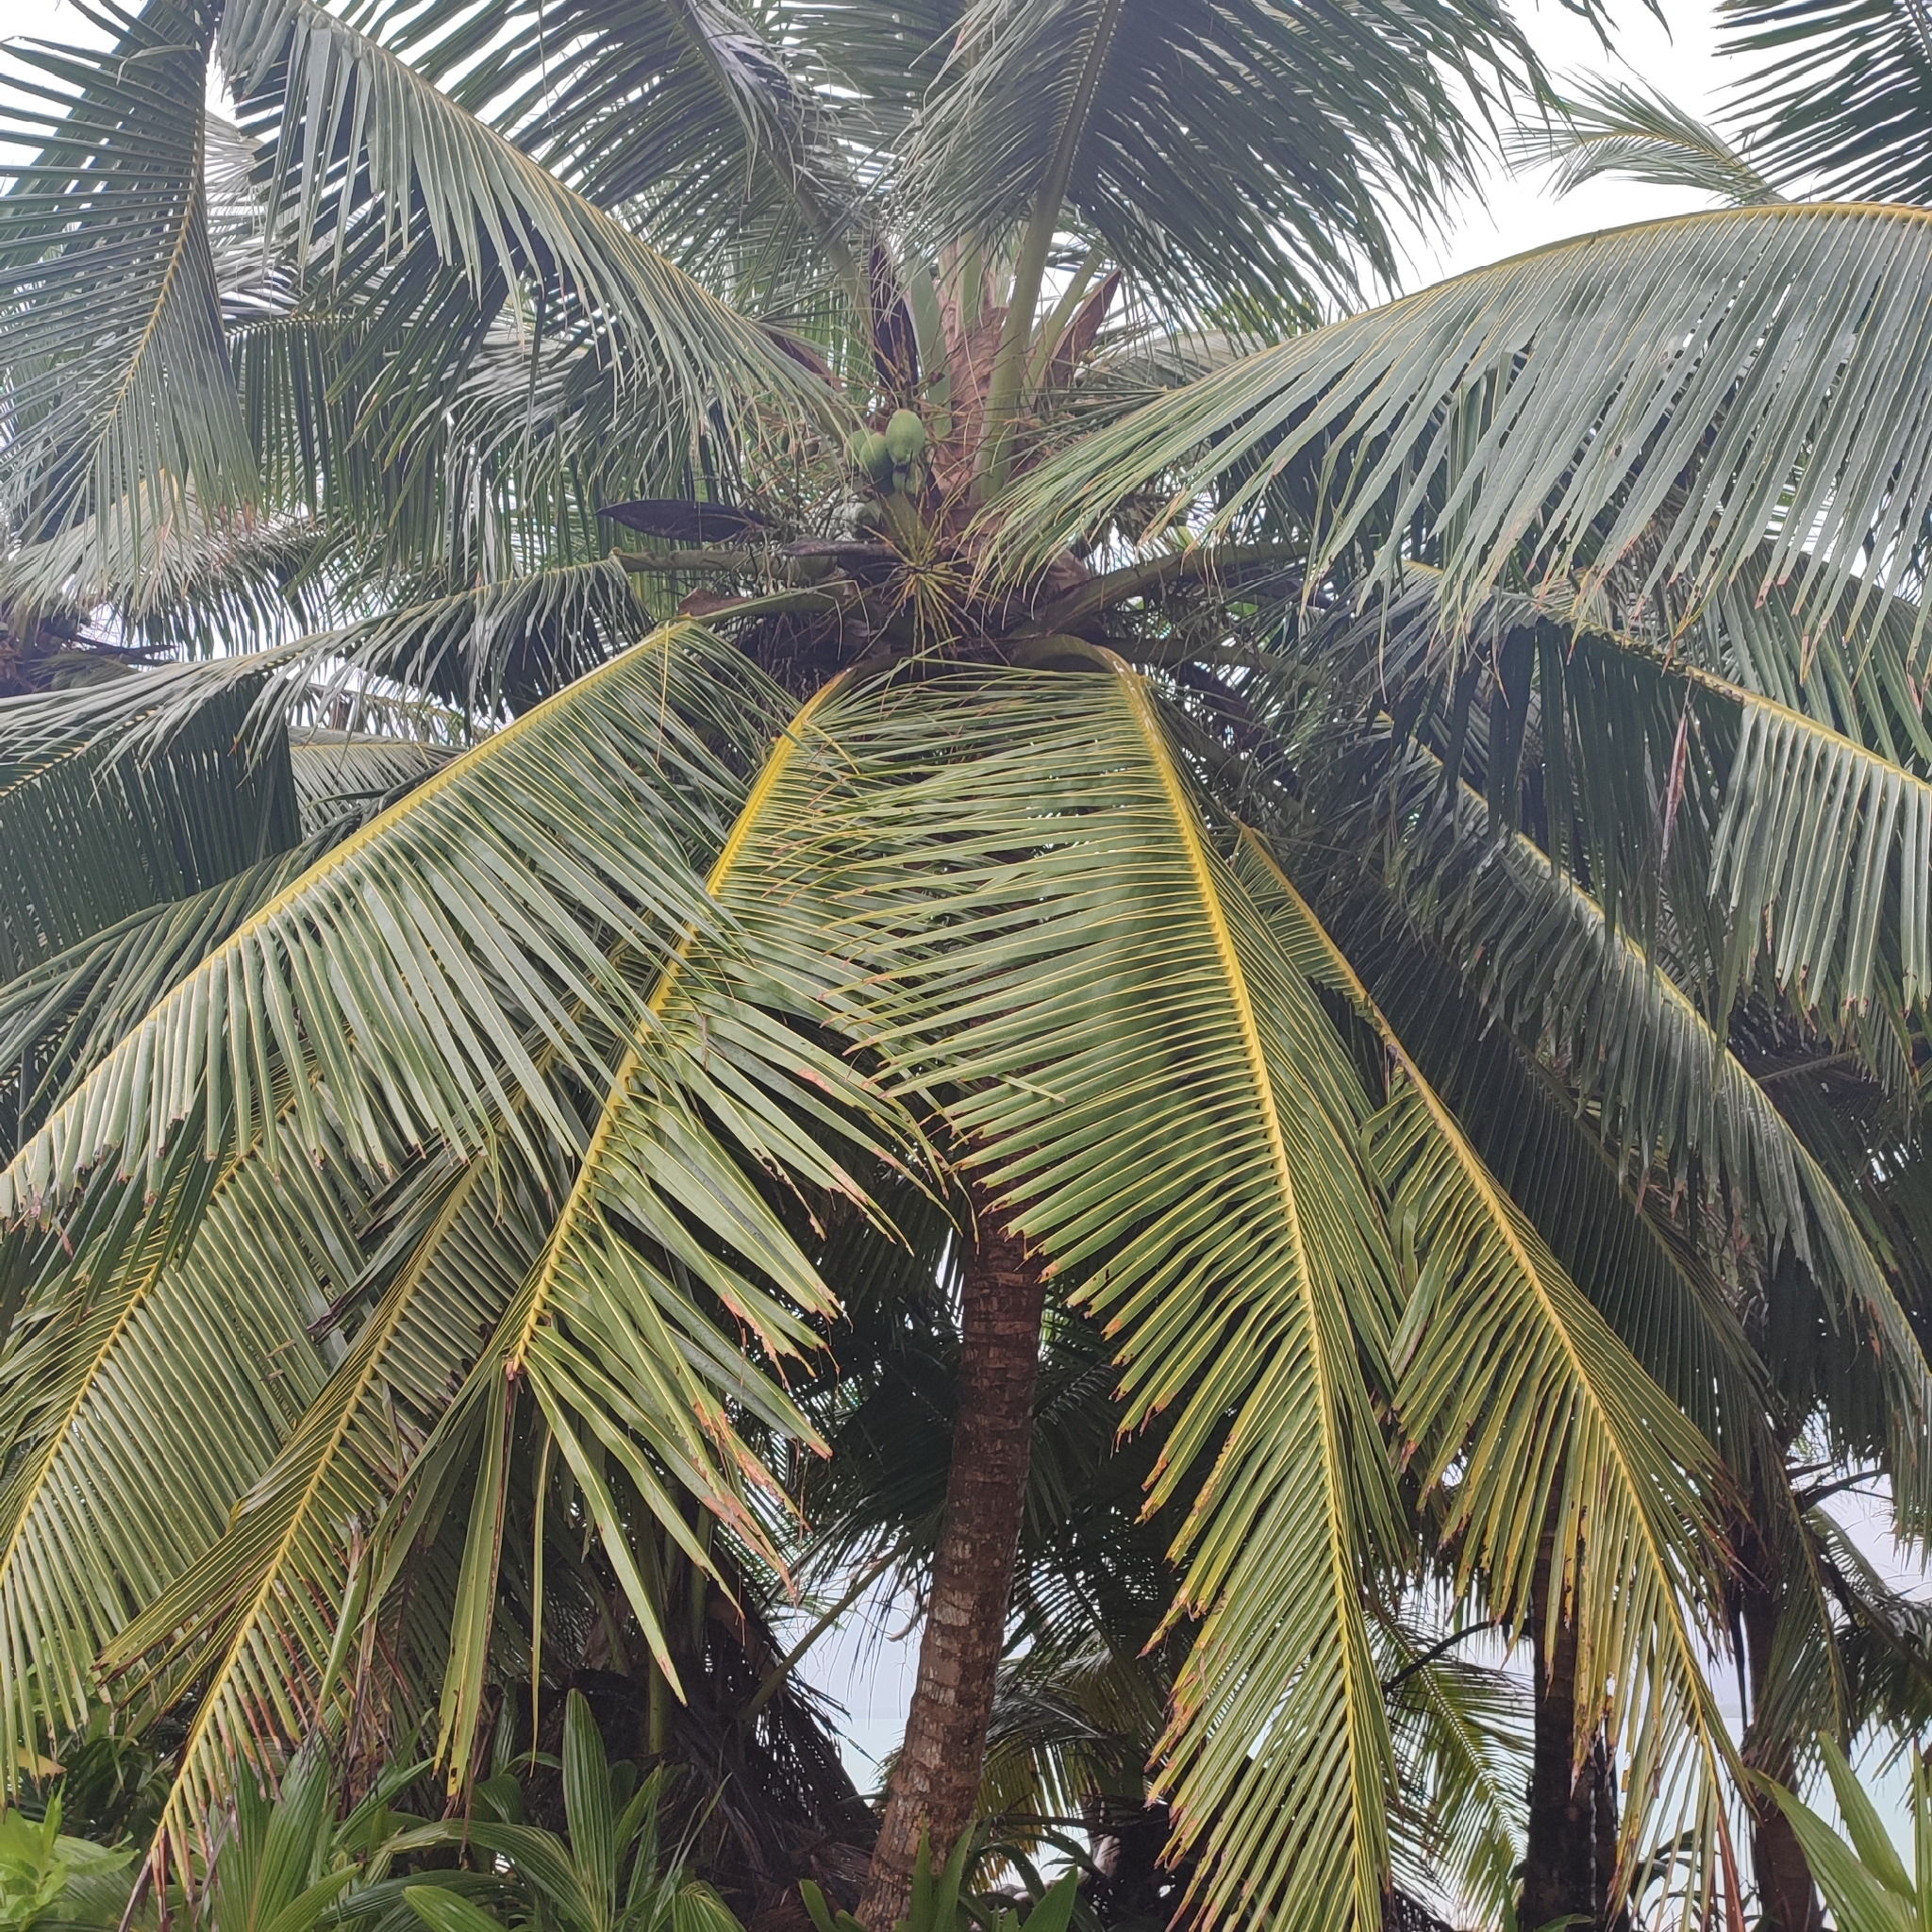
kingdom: Plantae
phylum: Tracheophyta
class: Liliopsida
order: Arecales
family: Arecaceae
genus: Cocos
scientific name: Cocos nucifera
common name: Coconut palm
